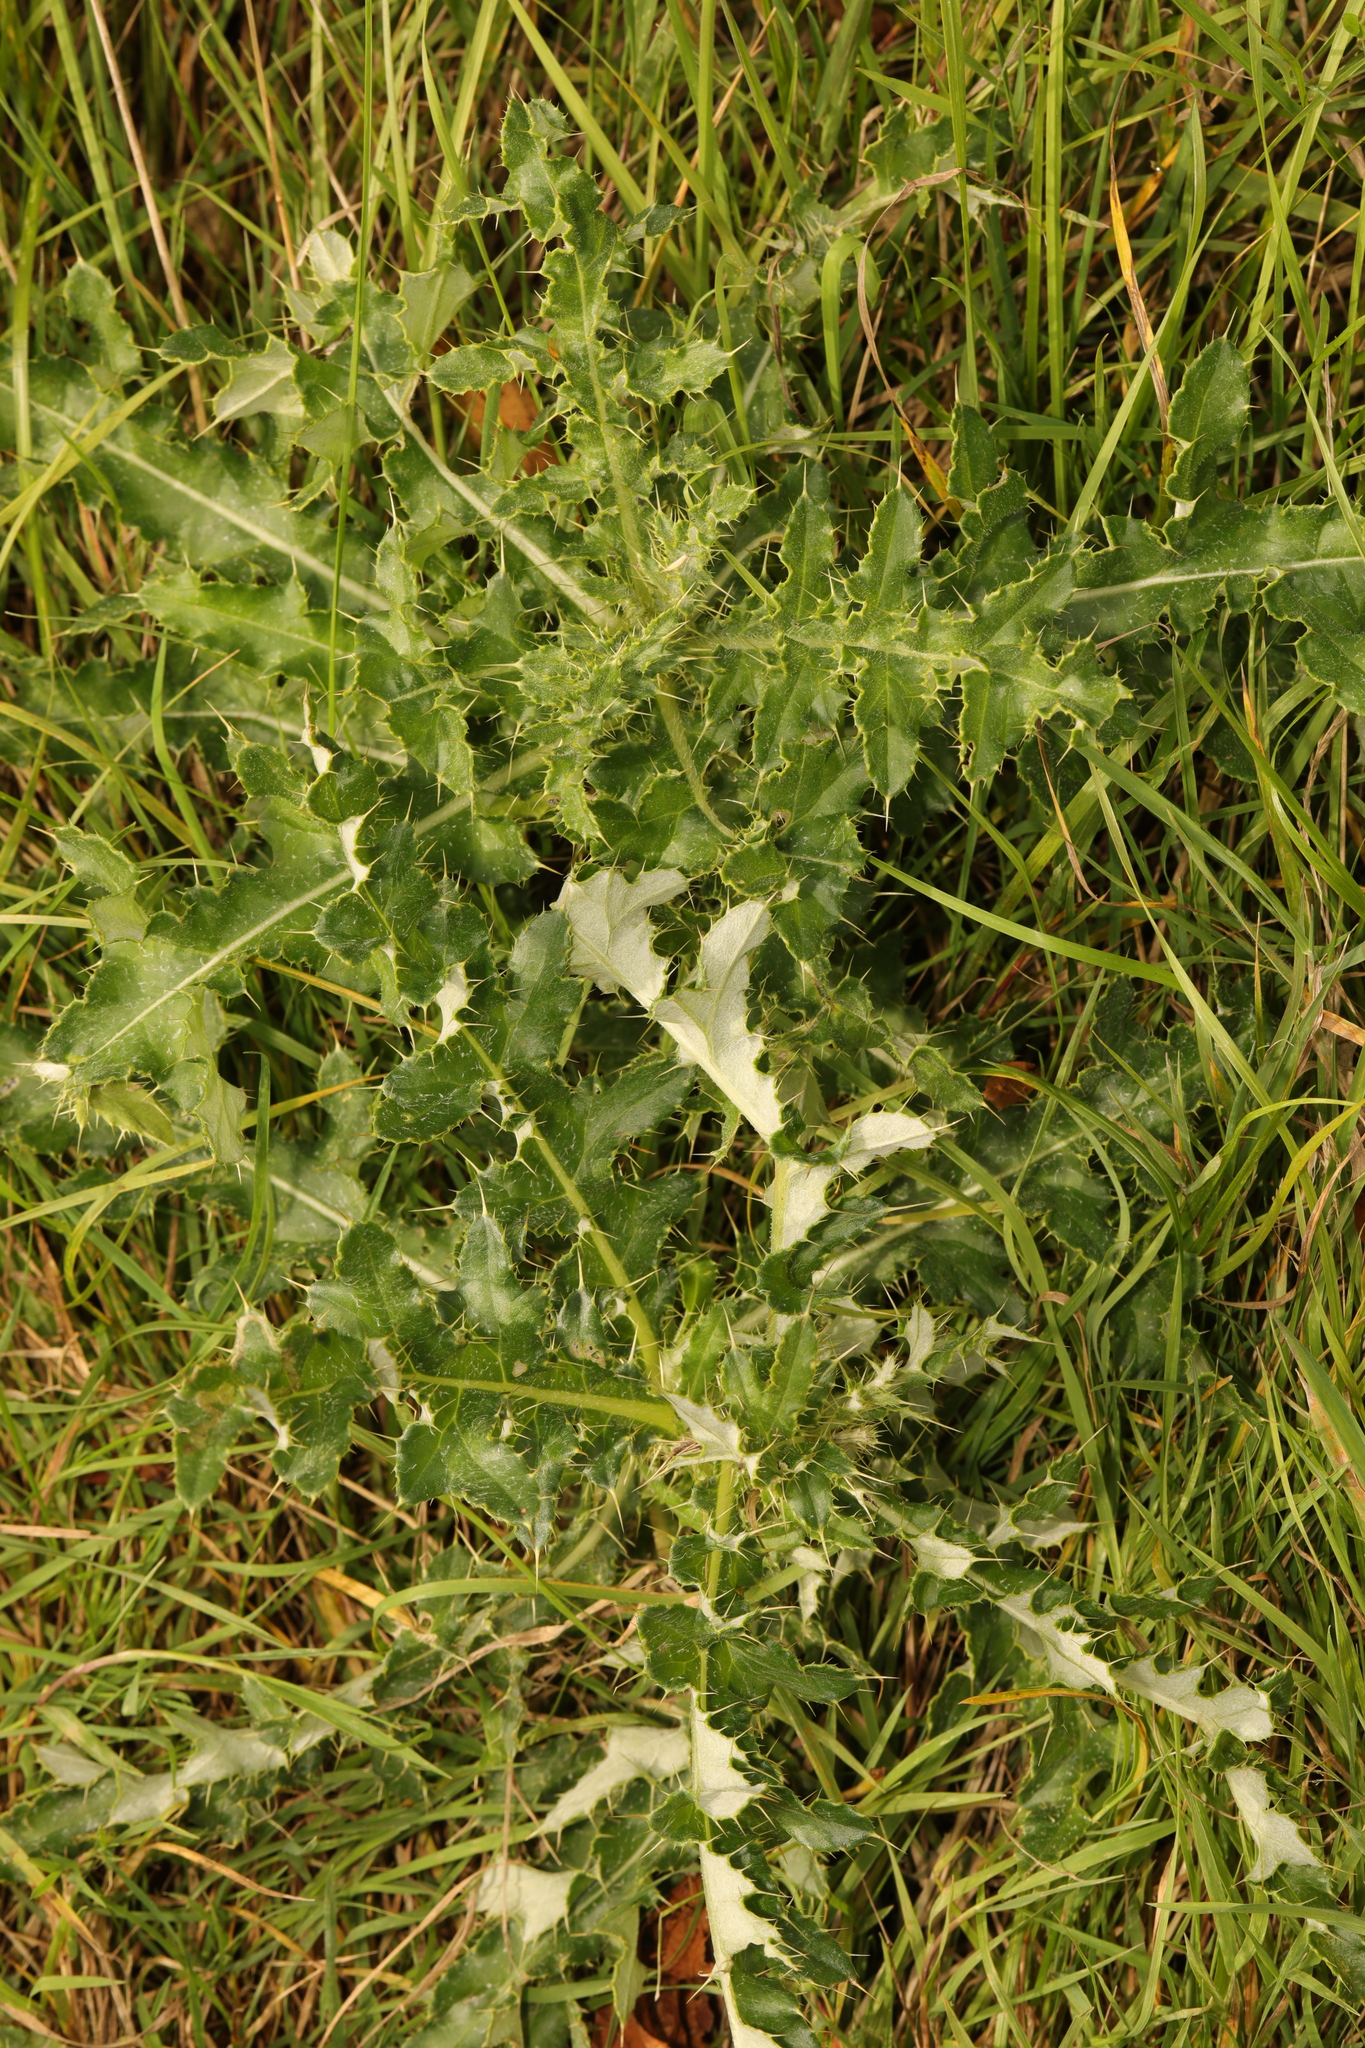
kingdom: Plantae
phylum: Tracheophyta
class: Magnoliopsida
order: Asterales
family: Asteraceae
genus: Cirsium
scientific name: Cirsium arvense
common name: Creeping thistle
